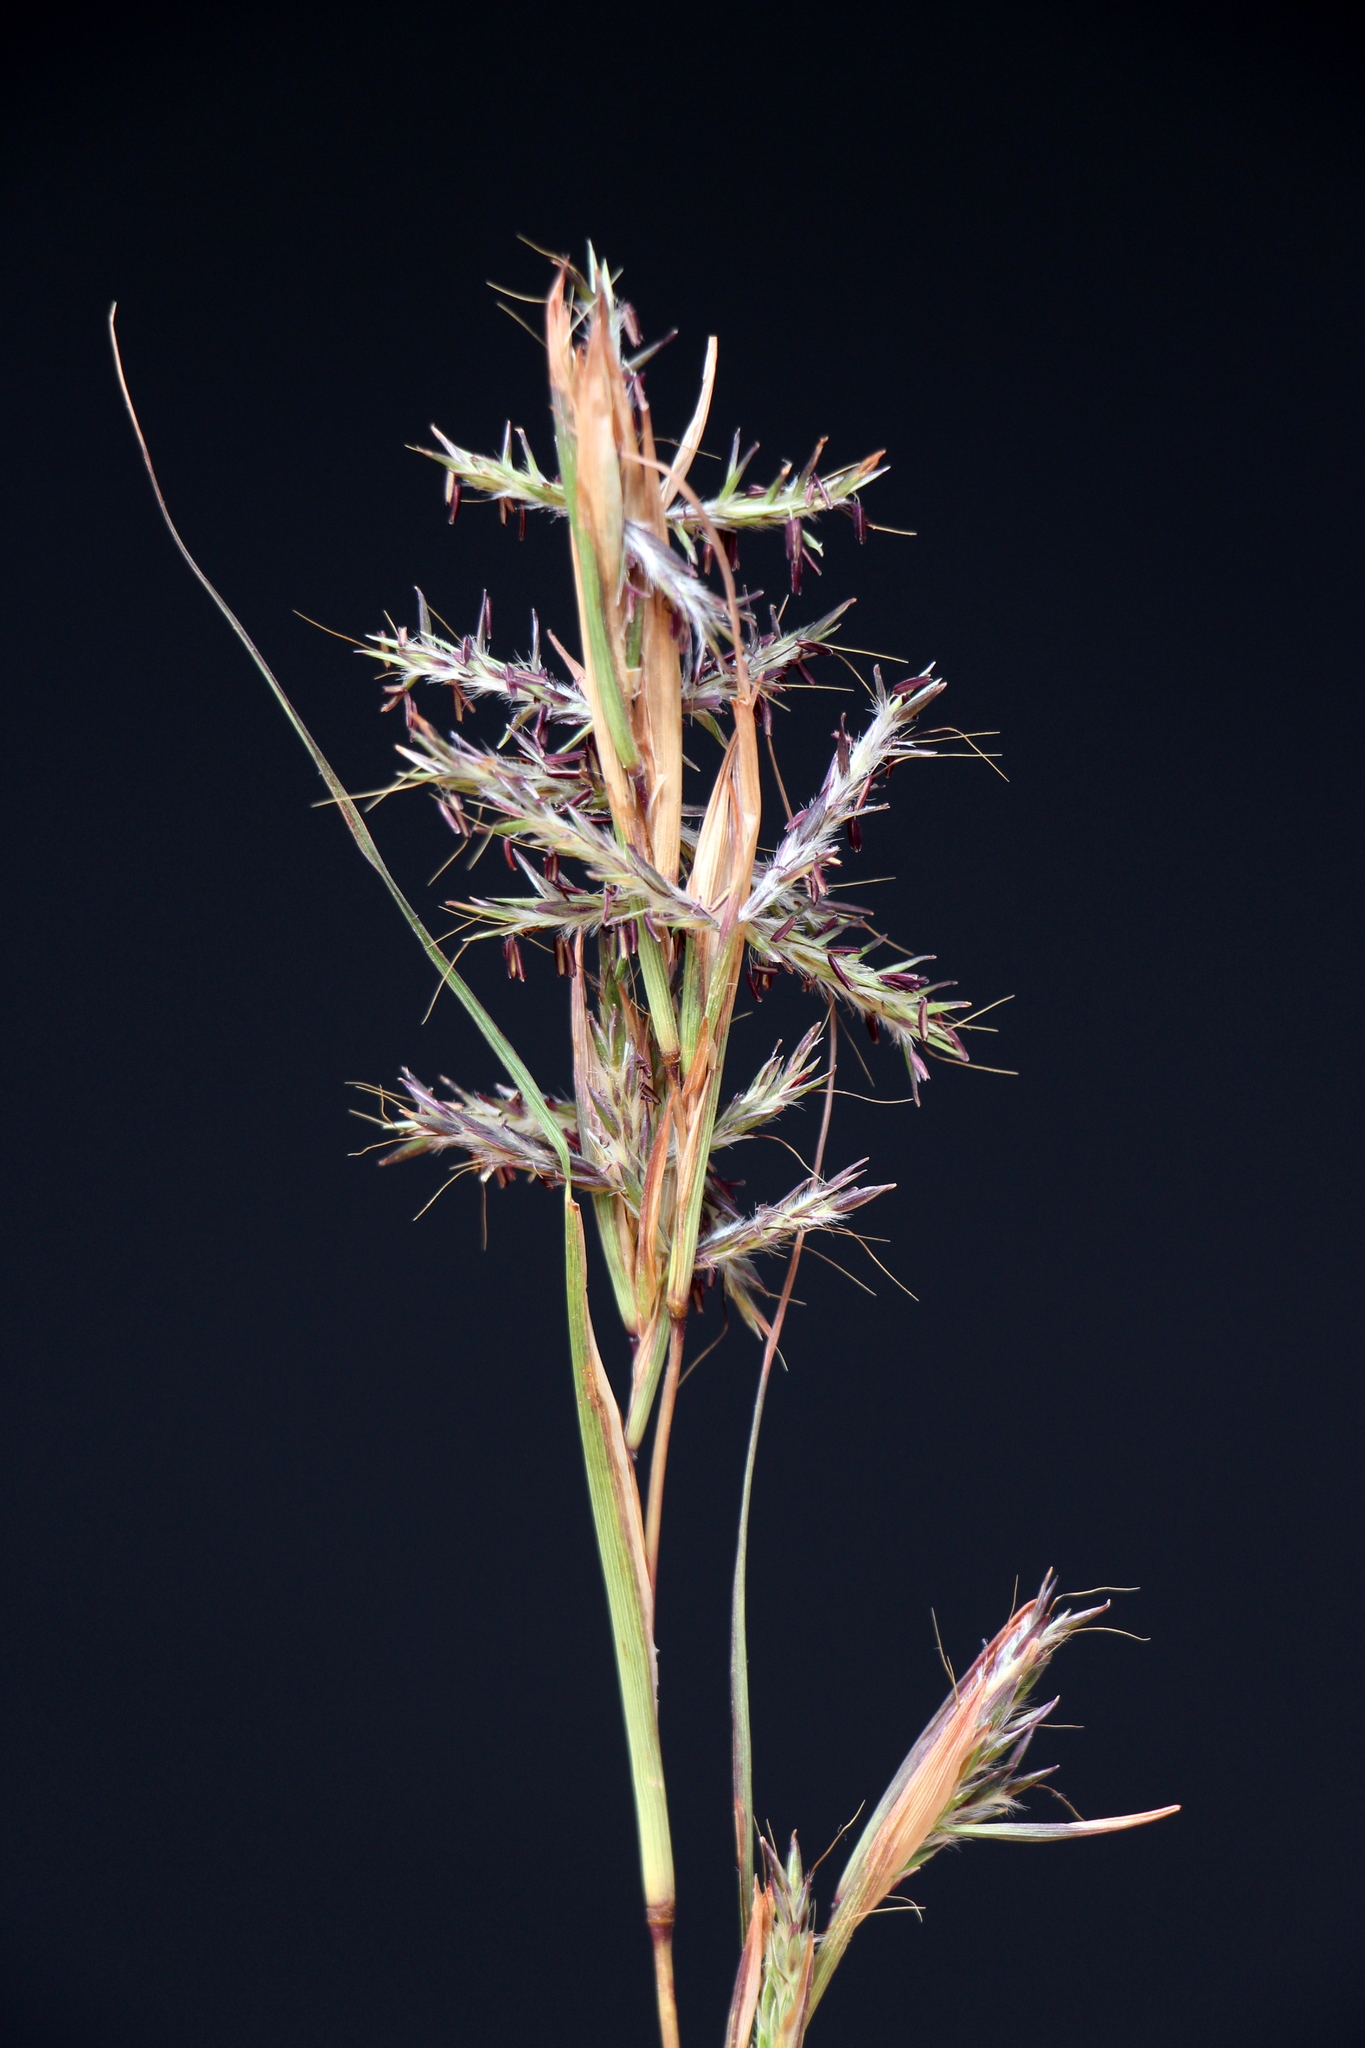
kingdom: Plantae
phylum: Tracheophyta
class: Liliopsida
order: Poales
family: Poaceae
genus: Cymbopogon
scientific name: Cymbopogon marginatus
